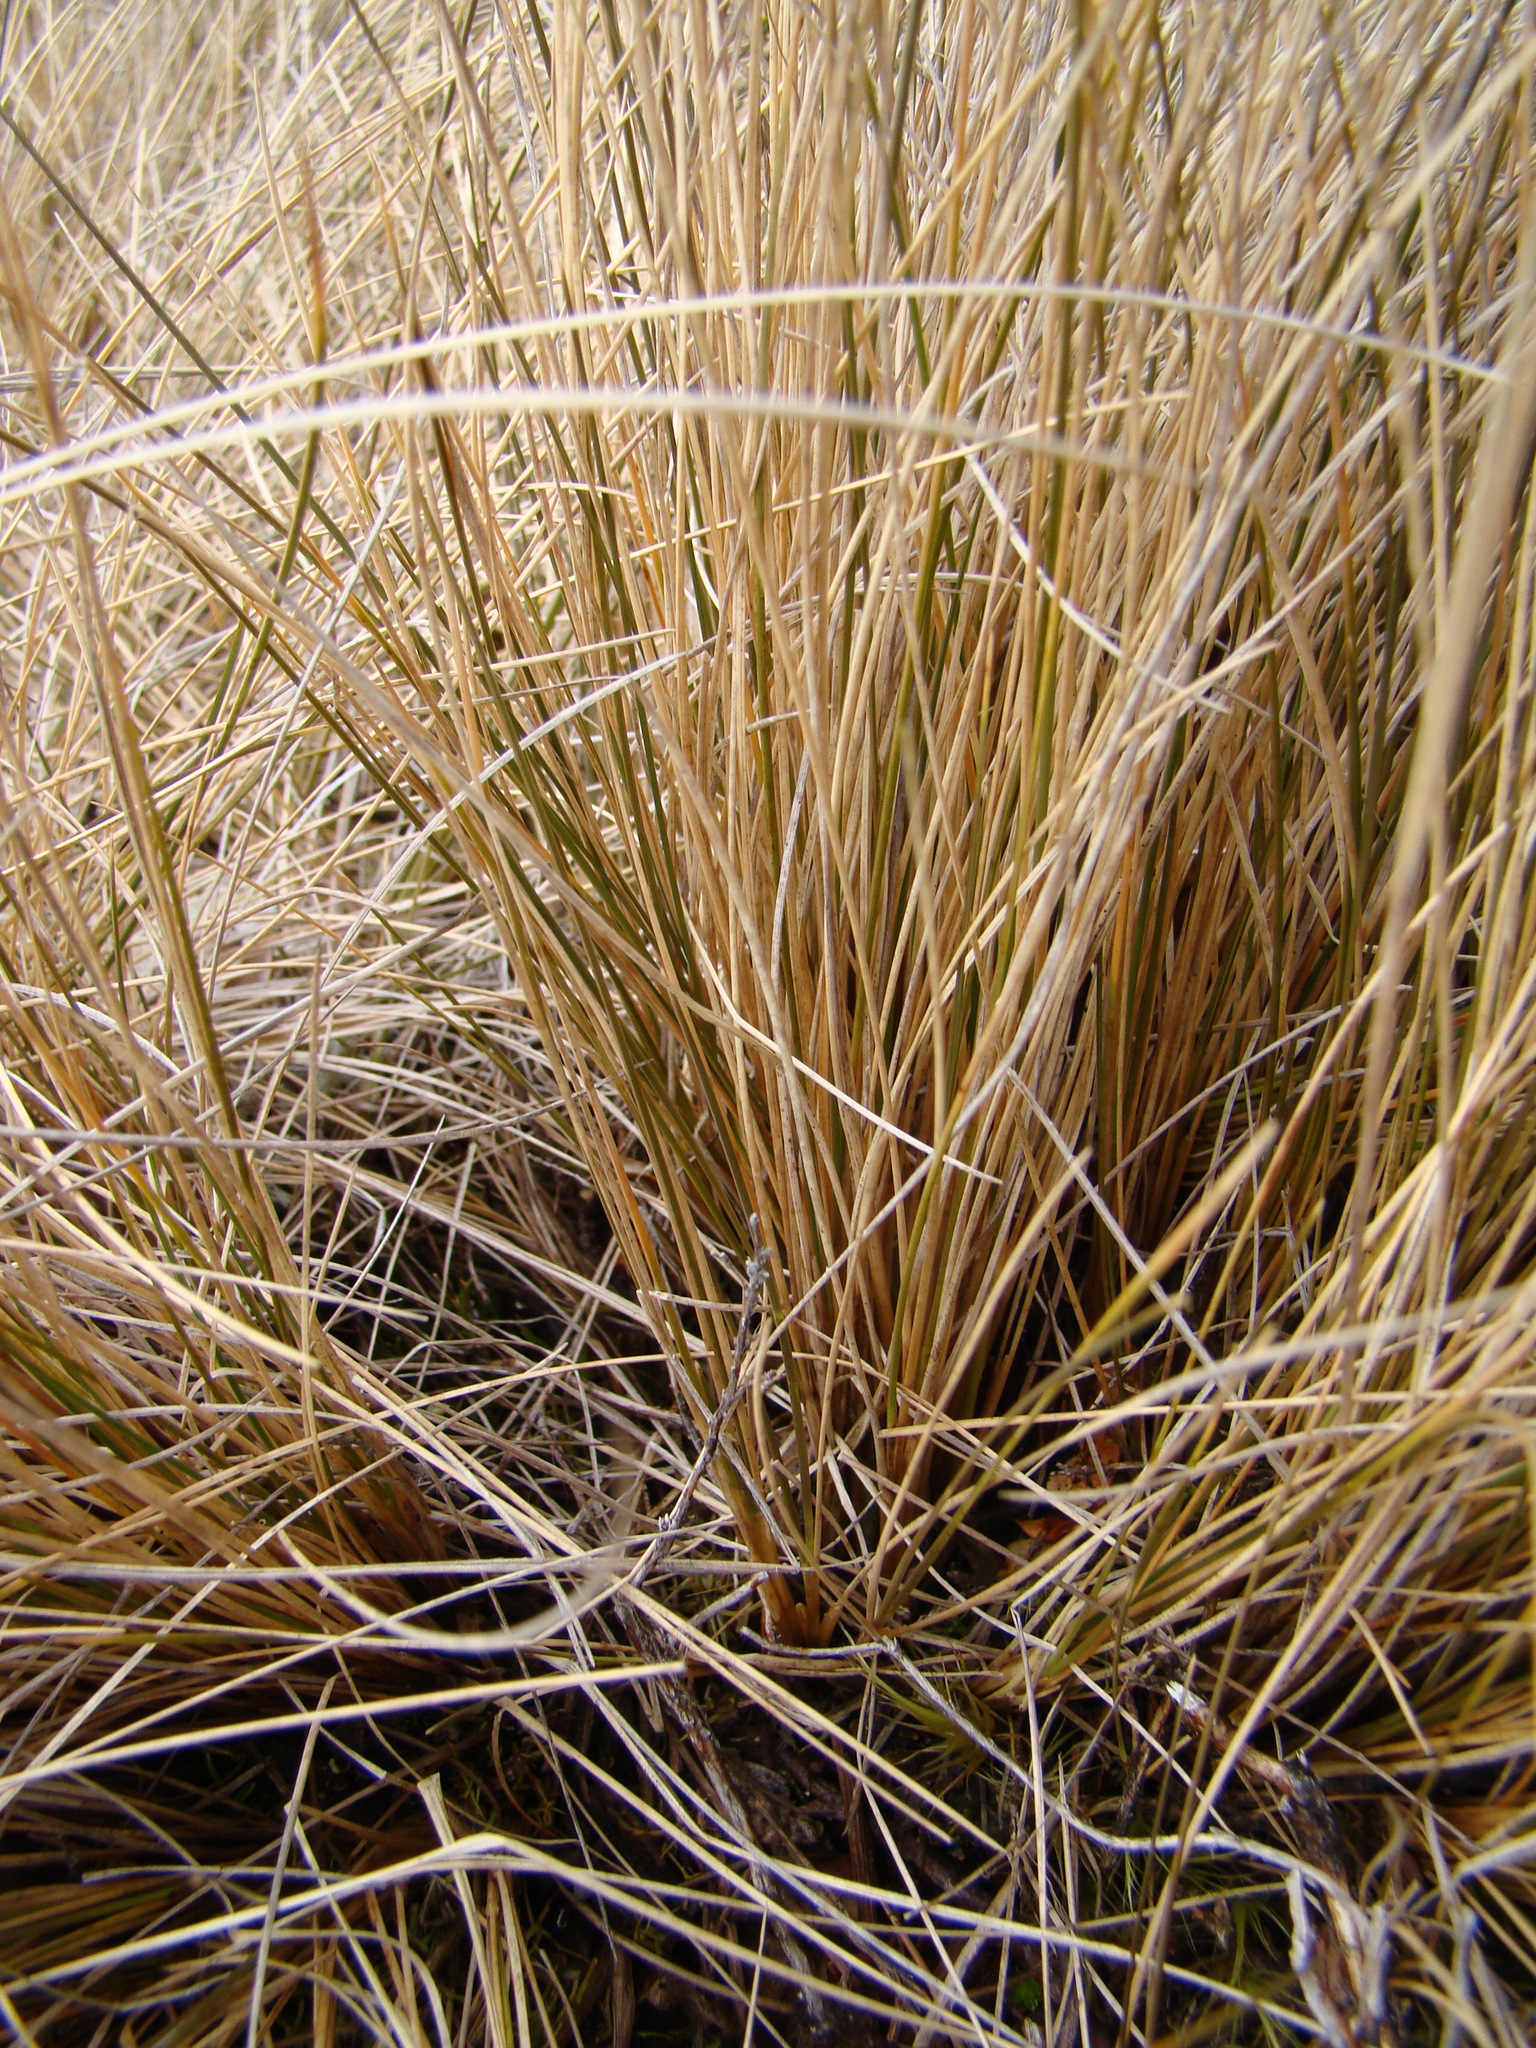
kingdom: Plantae
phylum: Tracheophyta
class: Liliopsida
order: Poales
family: Poaceae
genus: Chionochloa
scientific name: Chionochloa rubra
